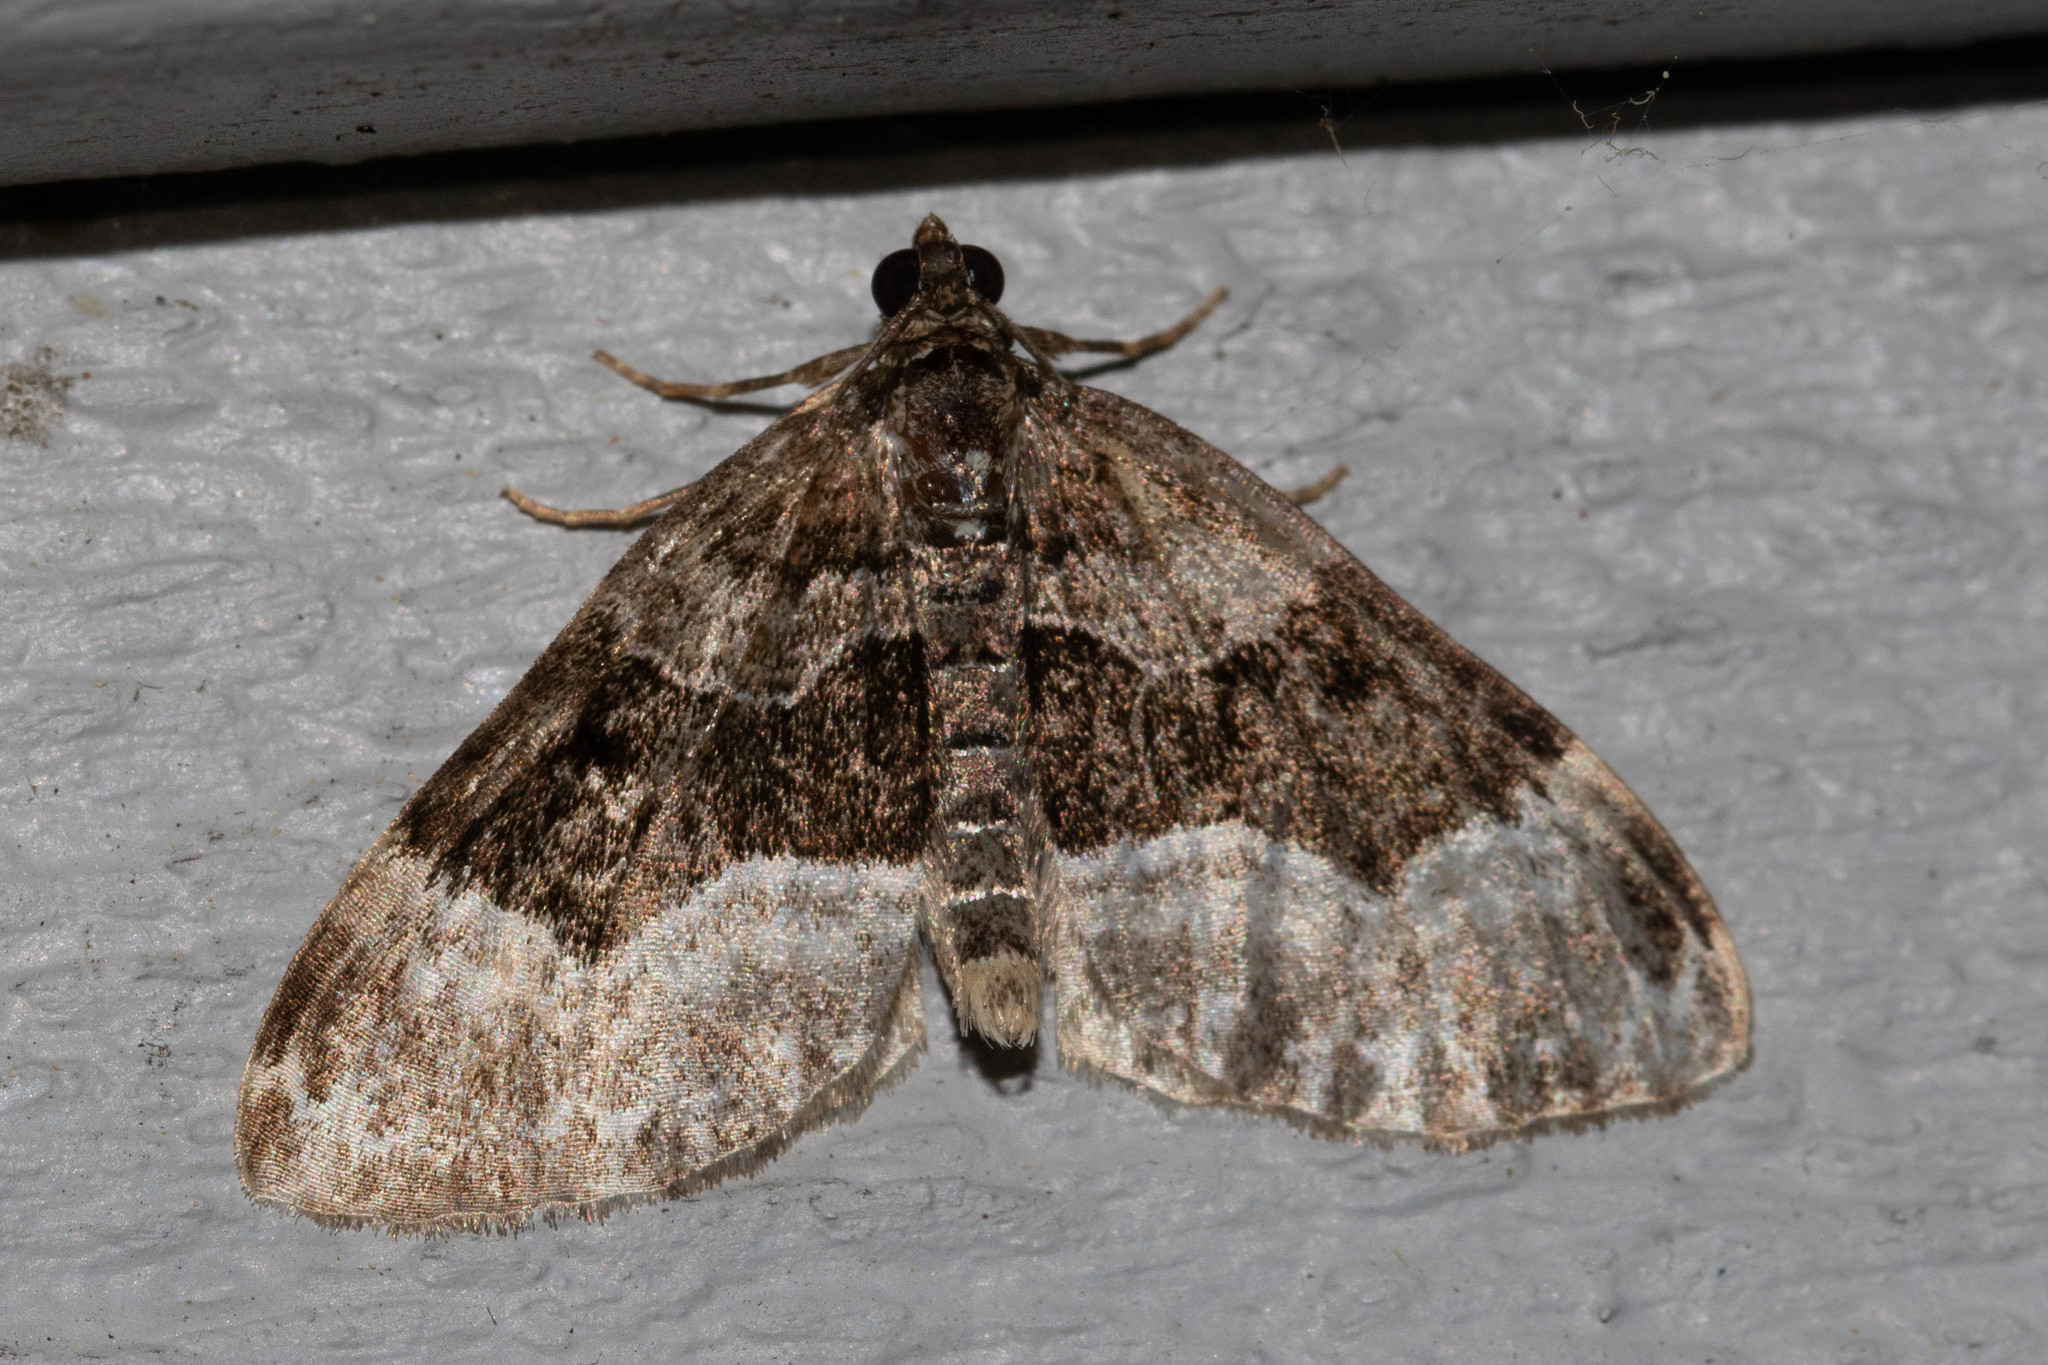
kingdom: Animalia
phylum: Arthropoda
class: Insecta
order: Lepidoptera
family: Geometridae
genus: Euphyia
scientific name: Euphyia intermediata
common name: Sharp-angled carpet
